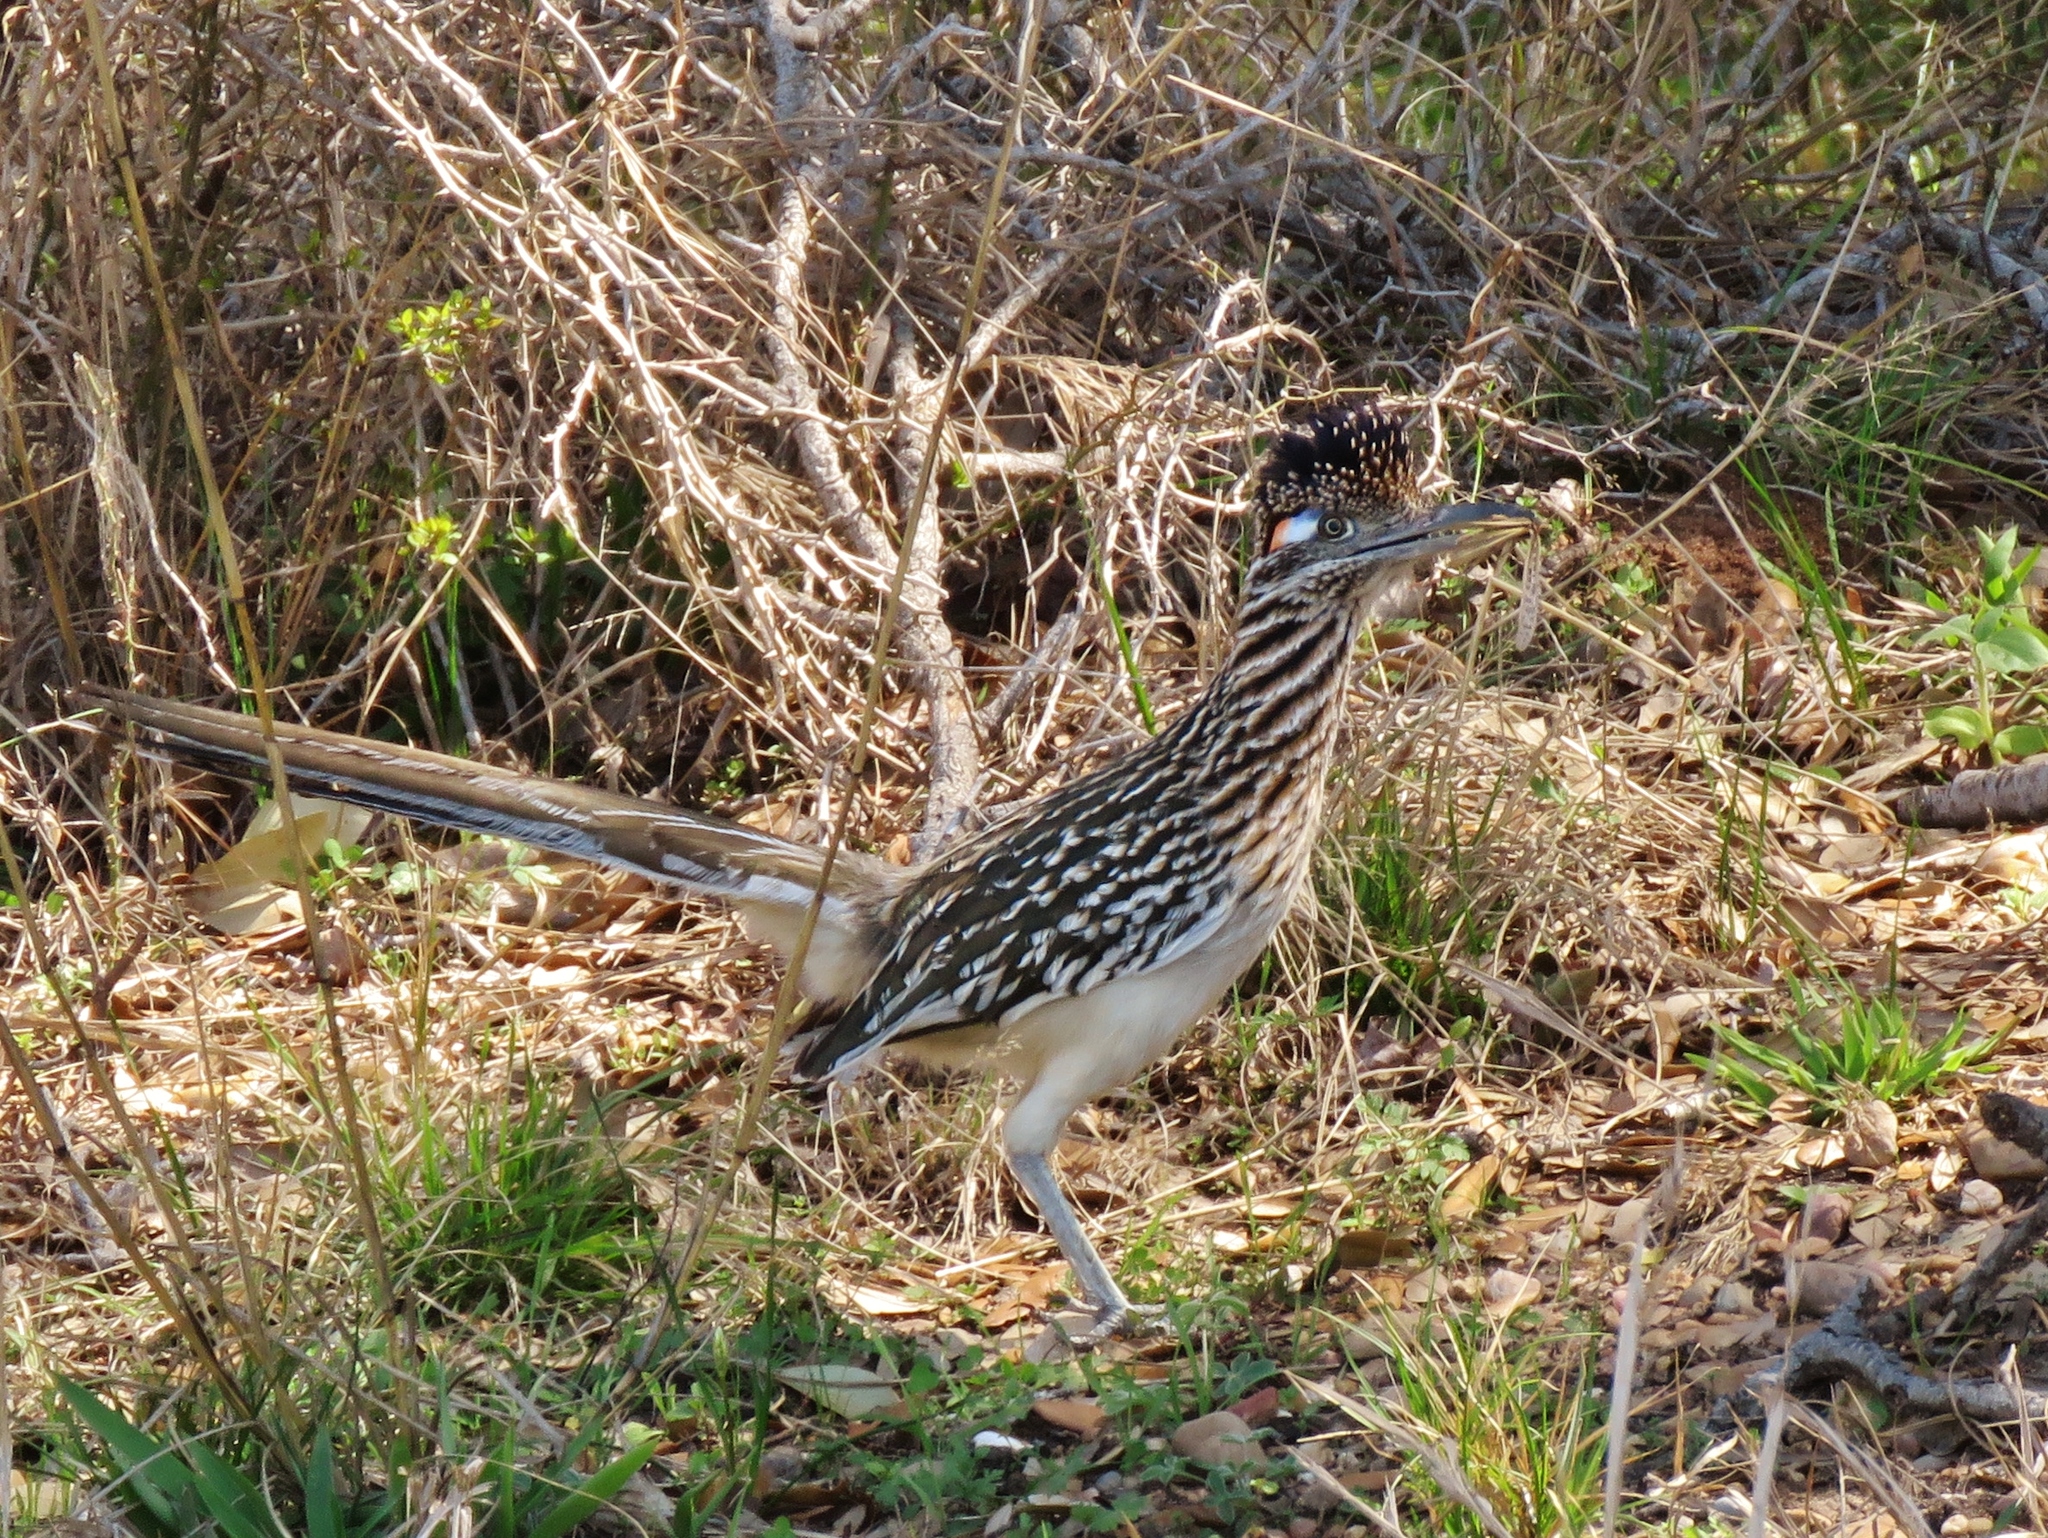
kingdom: Animalia
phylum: Chordata
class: Aves
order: Cuculiformes
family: Cuculidae
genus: Geococcyx
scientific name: Geococcyx californianus
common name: Greater roadrunner
